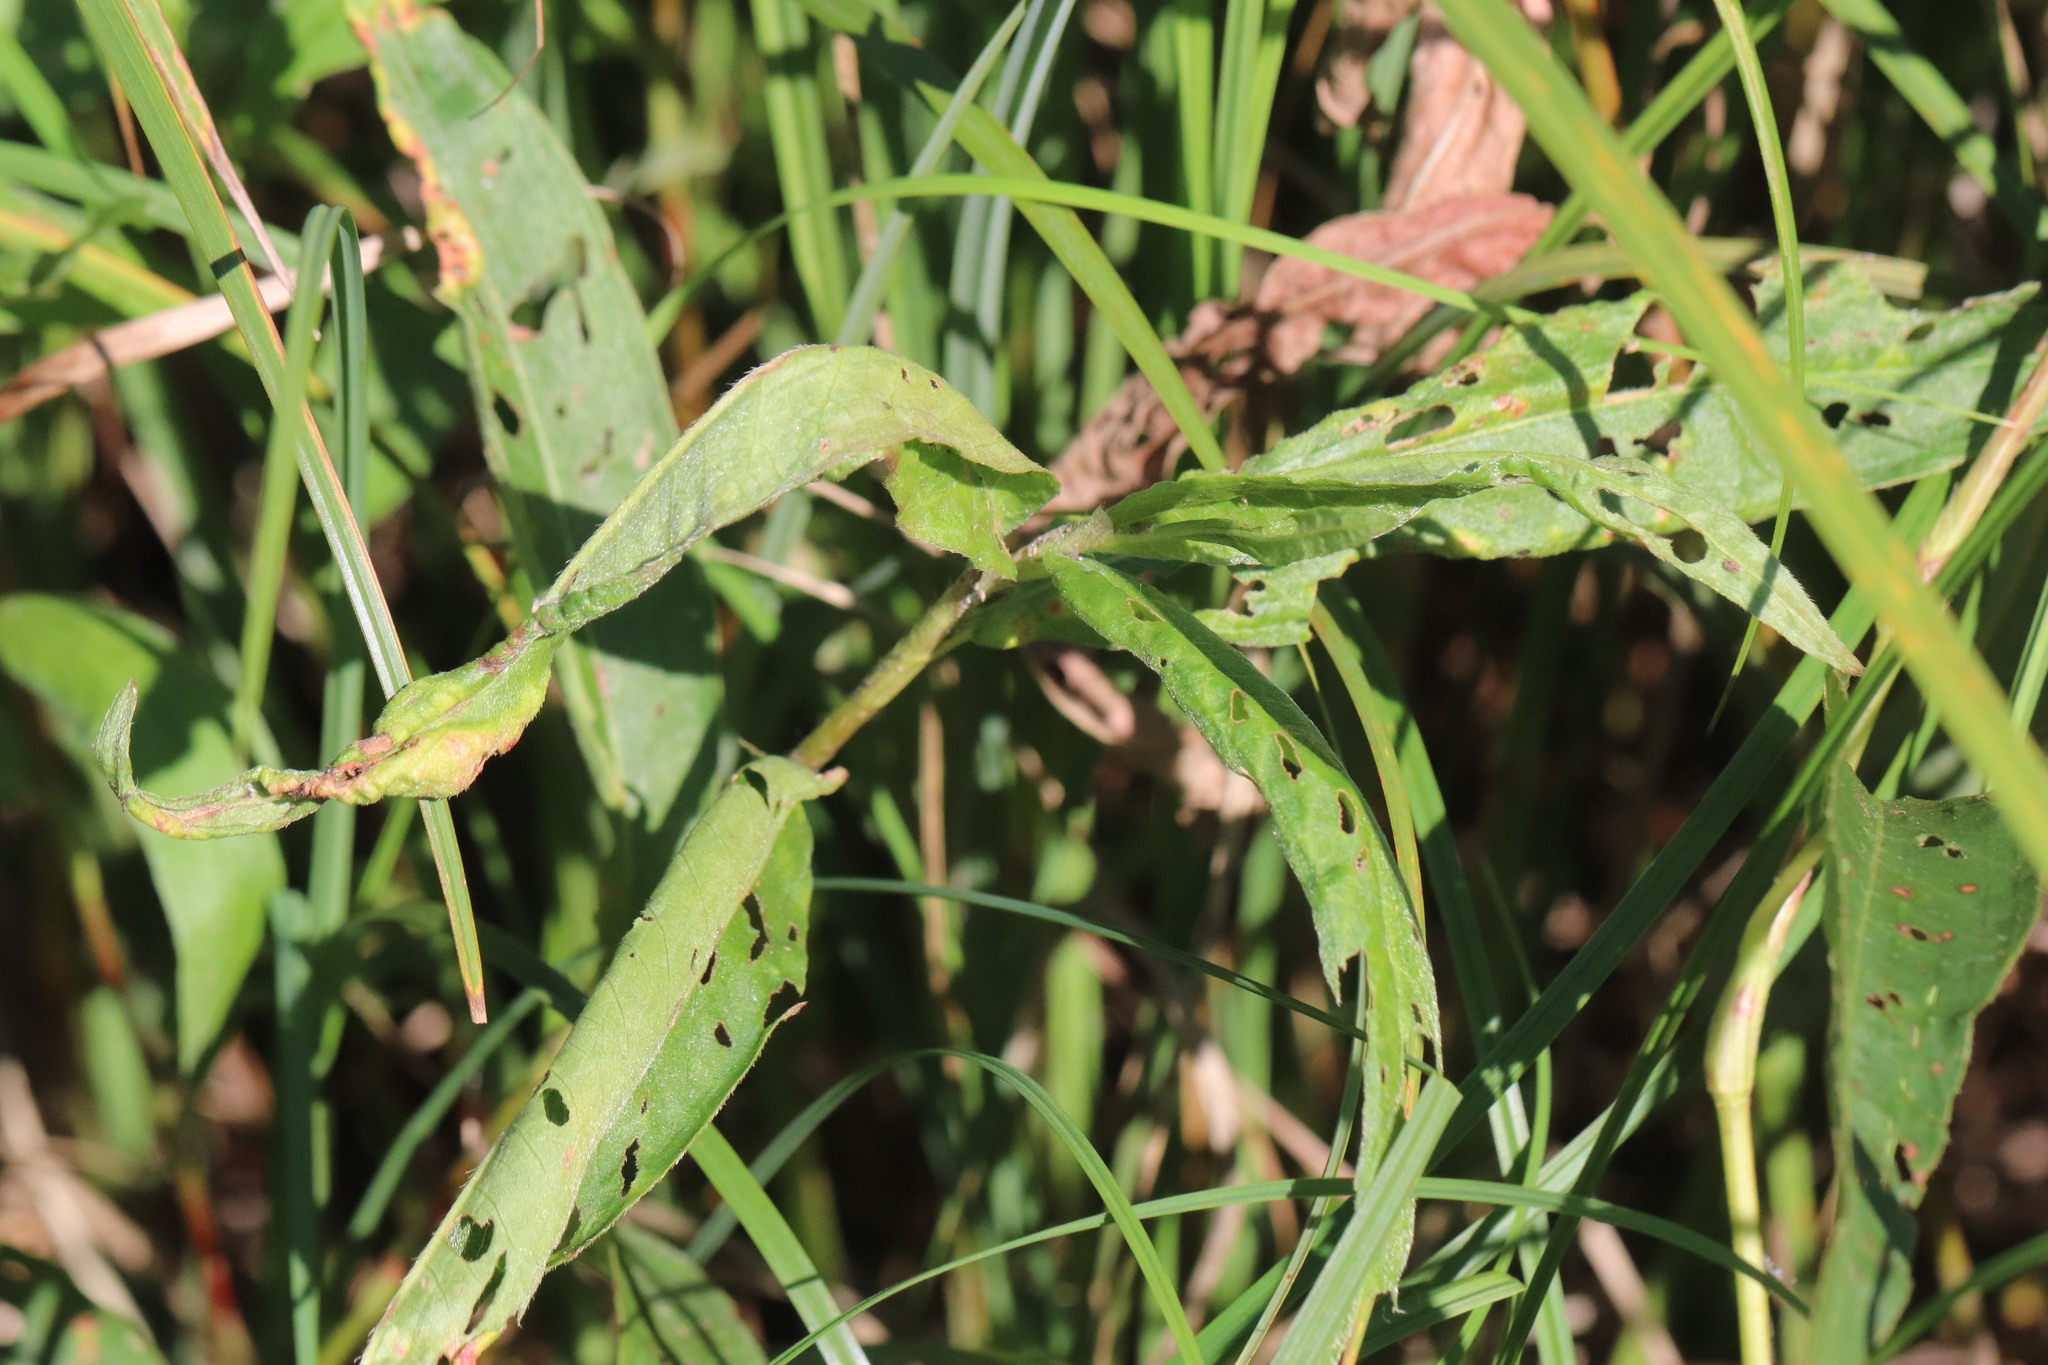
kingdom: Plantae
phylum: Tracheophyta
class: Magnoliopsida
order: Caryophyllales
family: Polygonaceae
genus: Persicaria
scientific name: Persicaria amphibia
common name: Amphibious bistort
